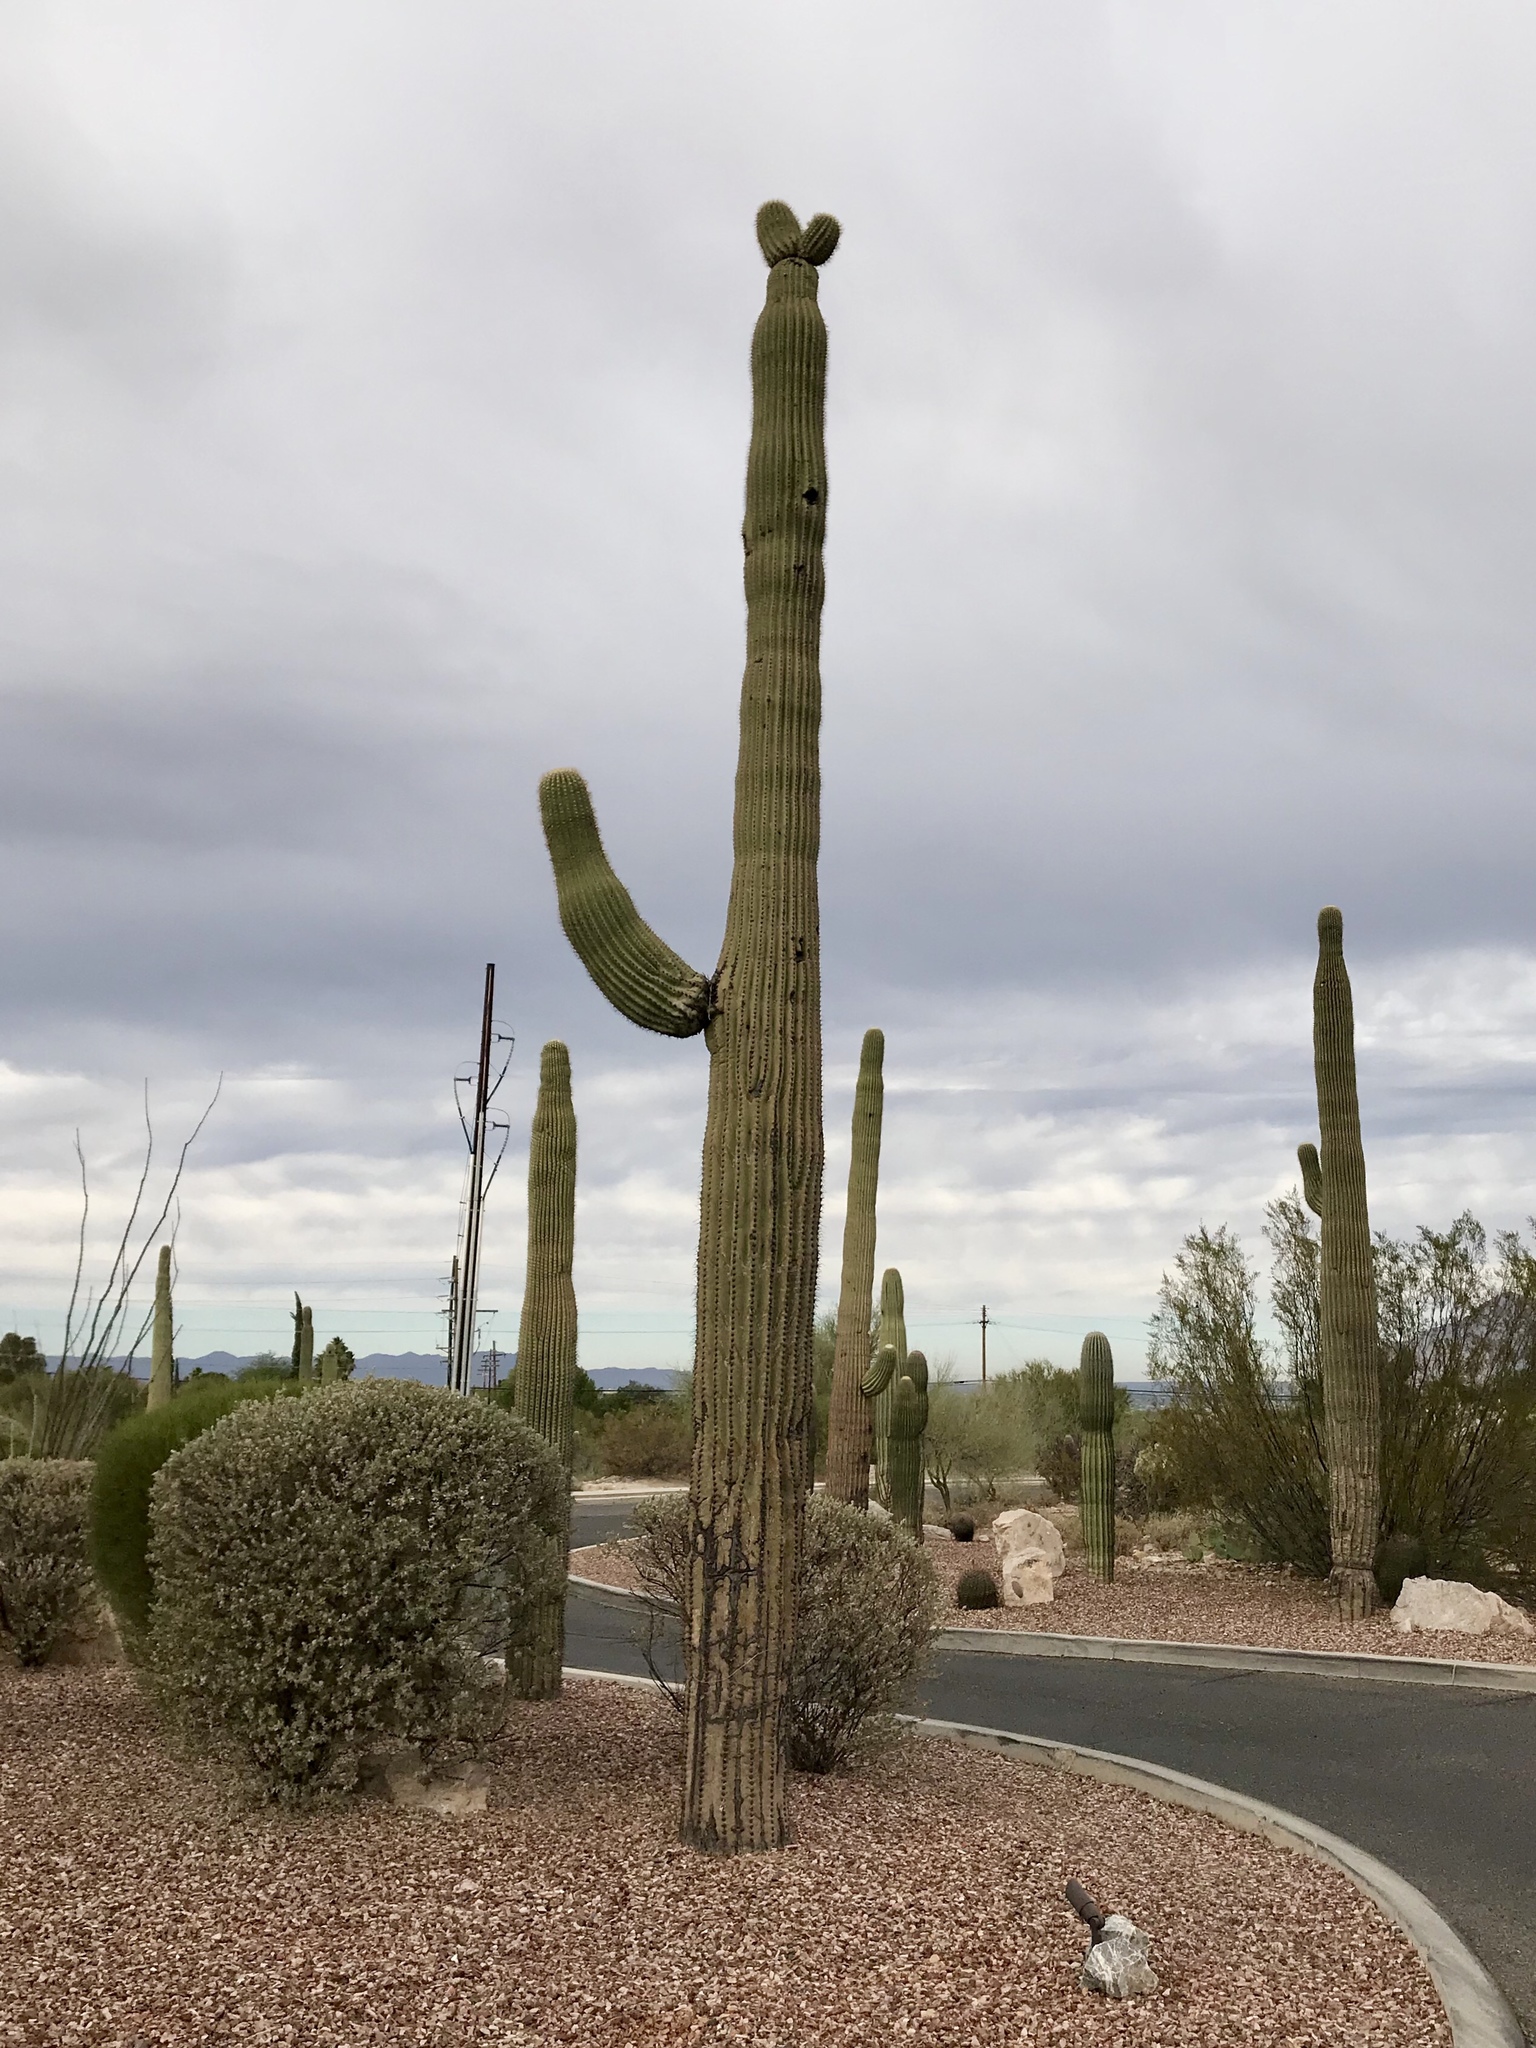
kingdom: Plantae
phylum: Tracheophyta
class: Magnoliopsida
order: Caryophyllales
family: Cactaceae
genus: Carnegiea
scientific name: Carnegiea gigantea
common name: Saguaro
